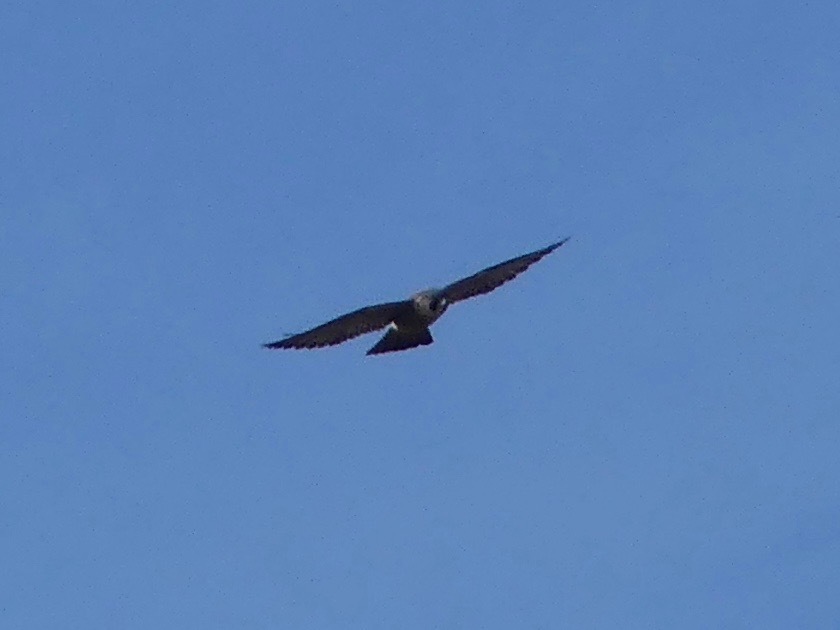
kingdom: Animalia
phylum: Chordata
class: Aves
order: Falconiformes
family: Falconidae
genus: Falco
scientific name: Falco peregrinus
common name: Peregrine falcon
